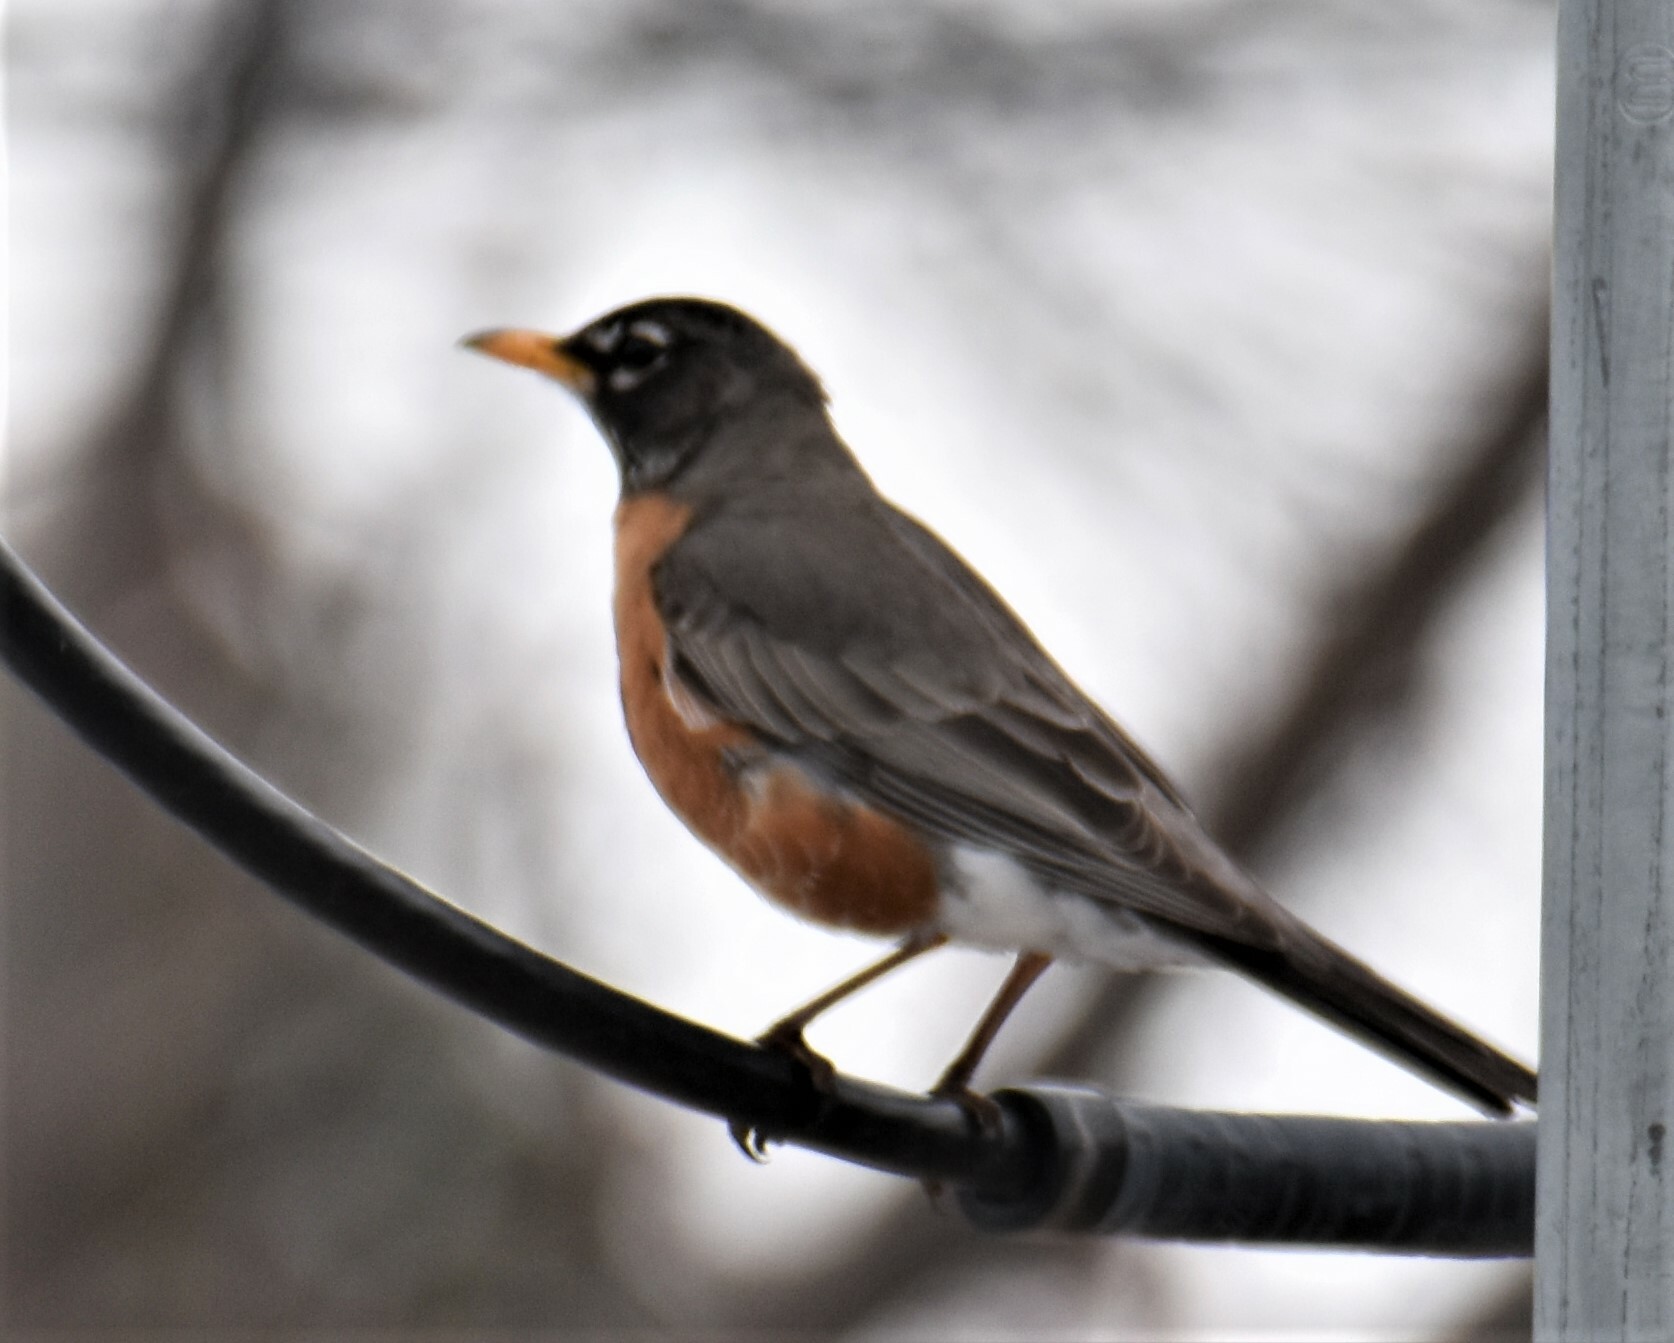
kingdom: Animalia
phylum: Chordata
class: Aves
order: Passeriformes
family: Turdidae
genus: Turdus
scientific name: Turdus migratorius
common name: American robin
